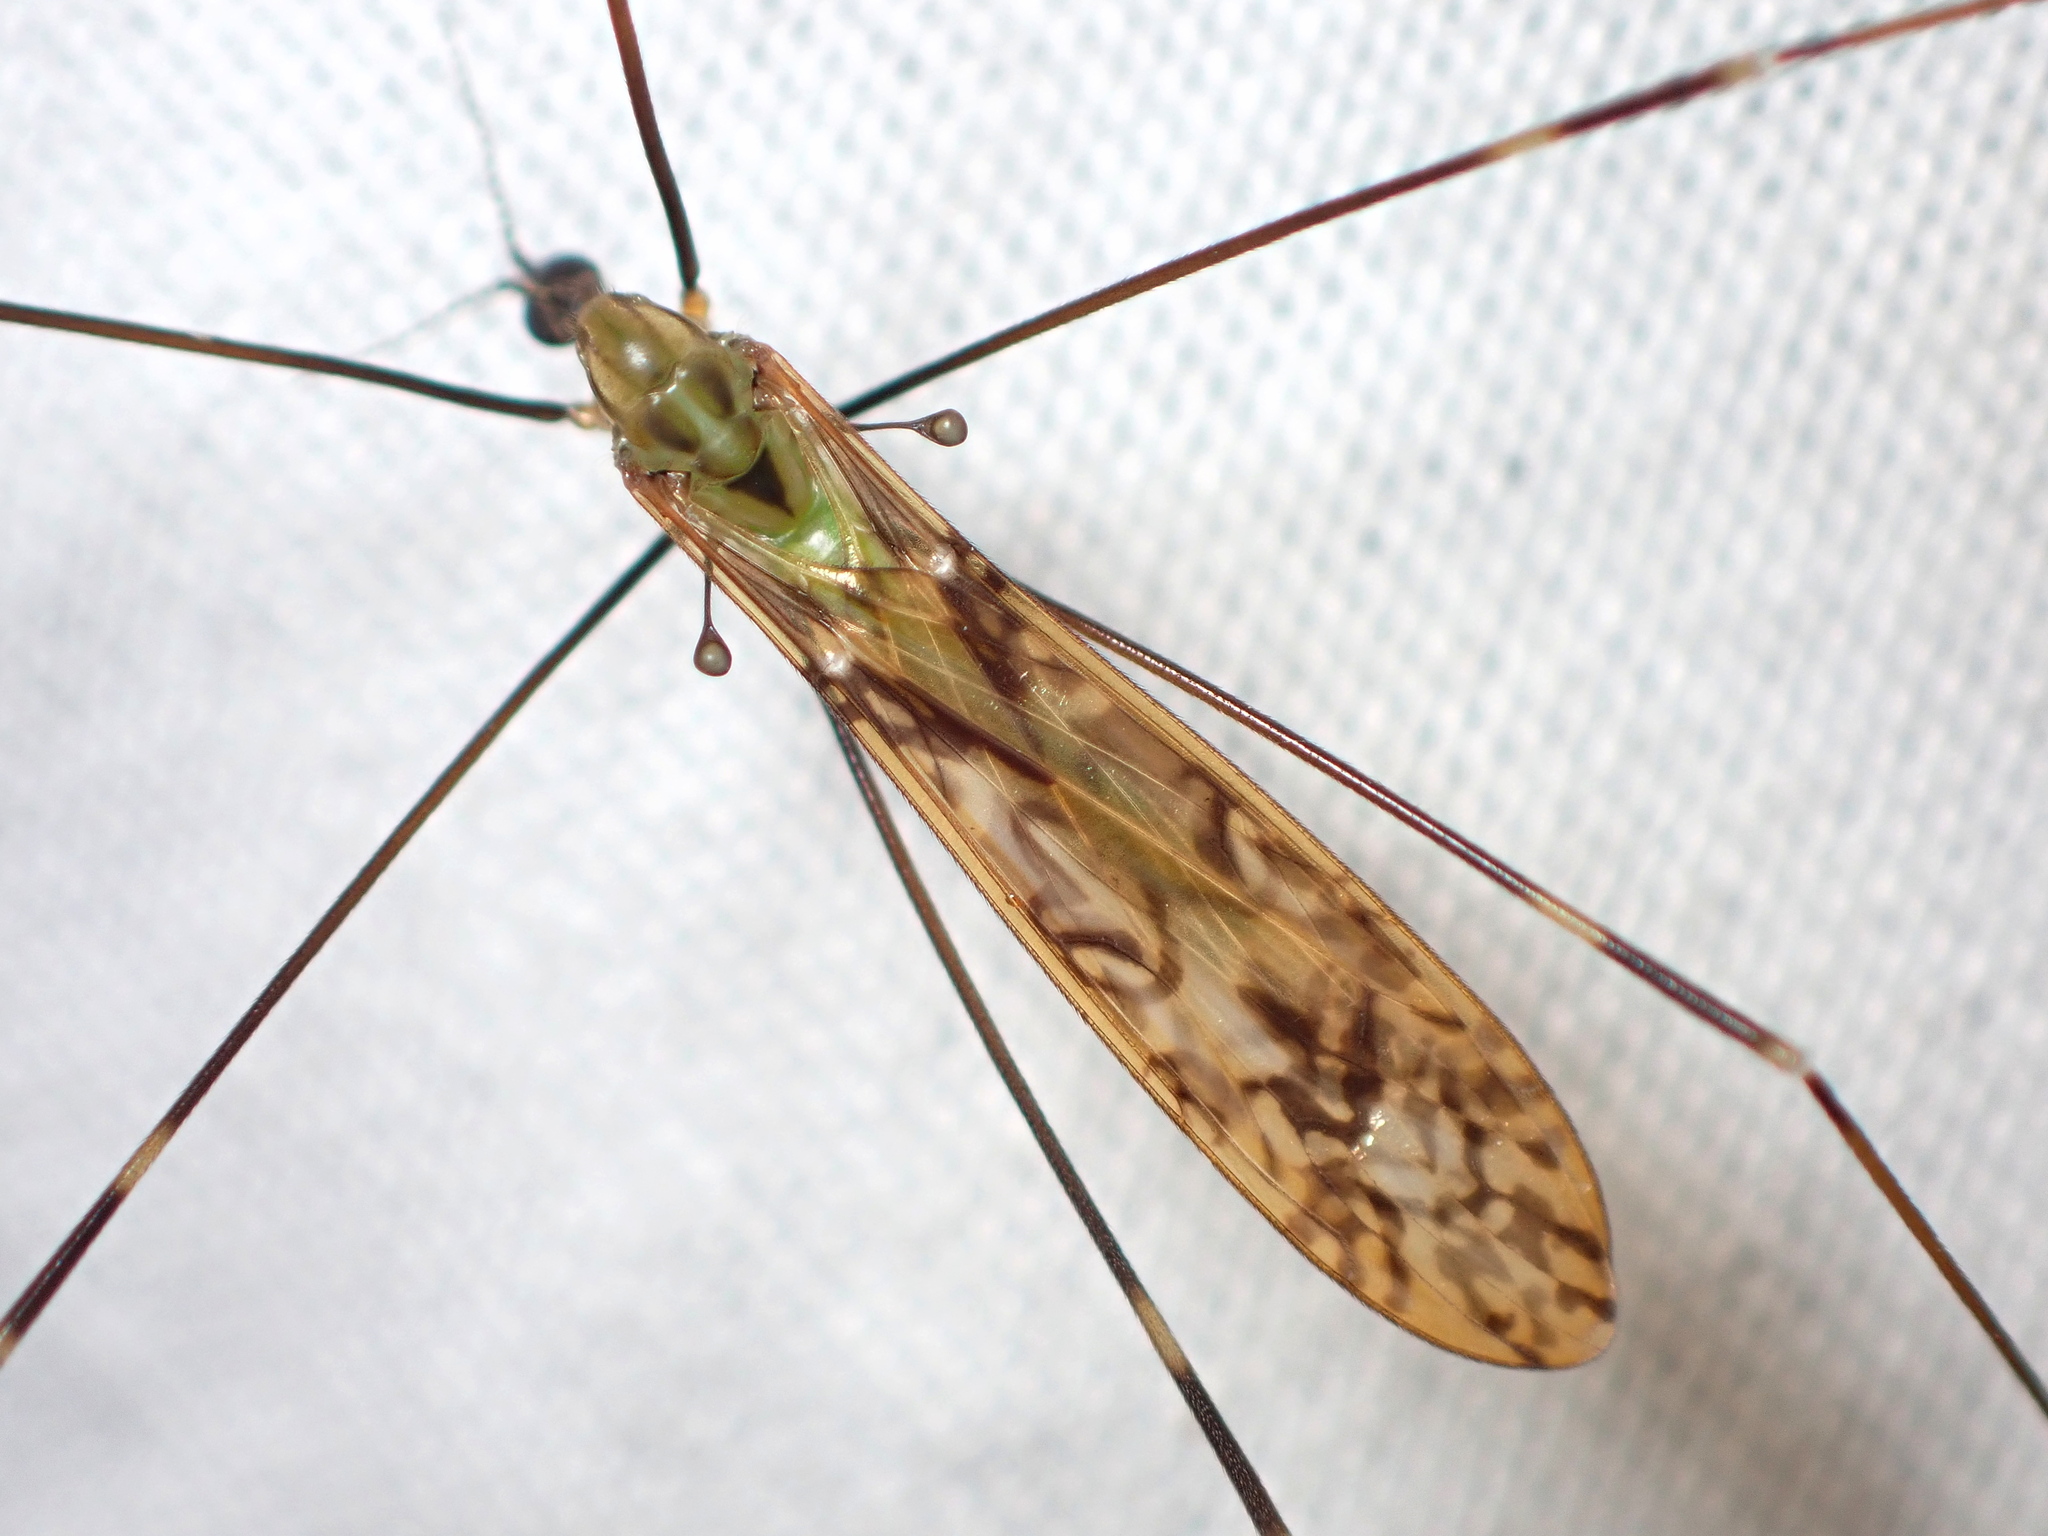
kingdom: Animalia
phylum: Arthropoda
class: Insecta
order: Diptera
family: Limoniidae
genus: Discobola
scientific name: Discobola tessellata
